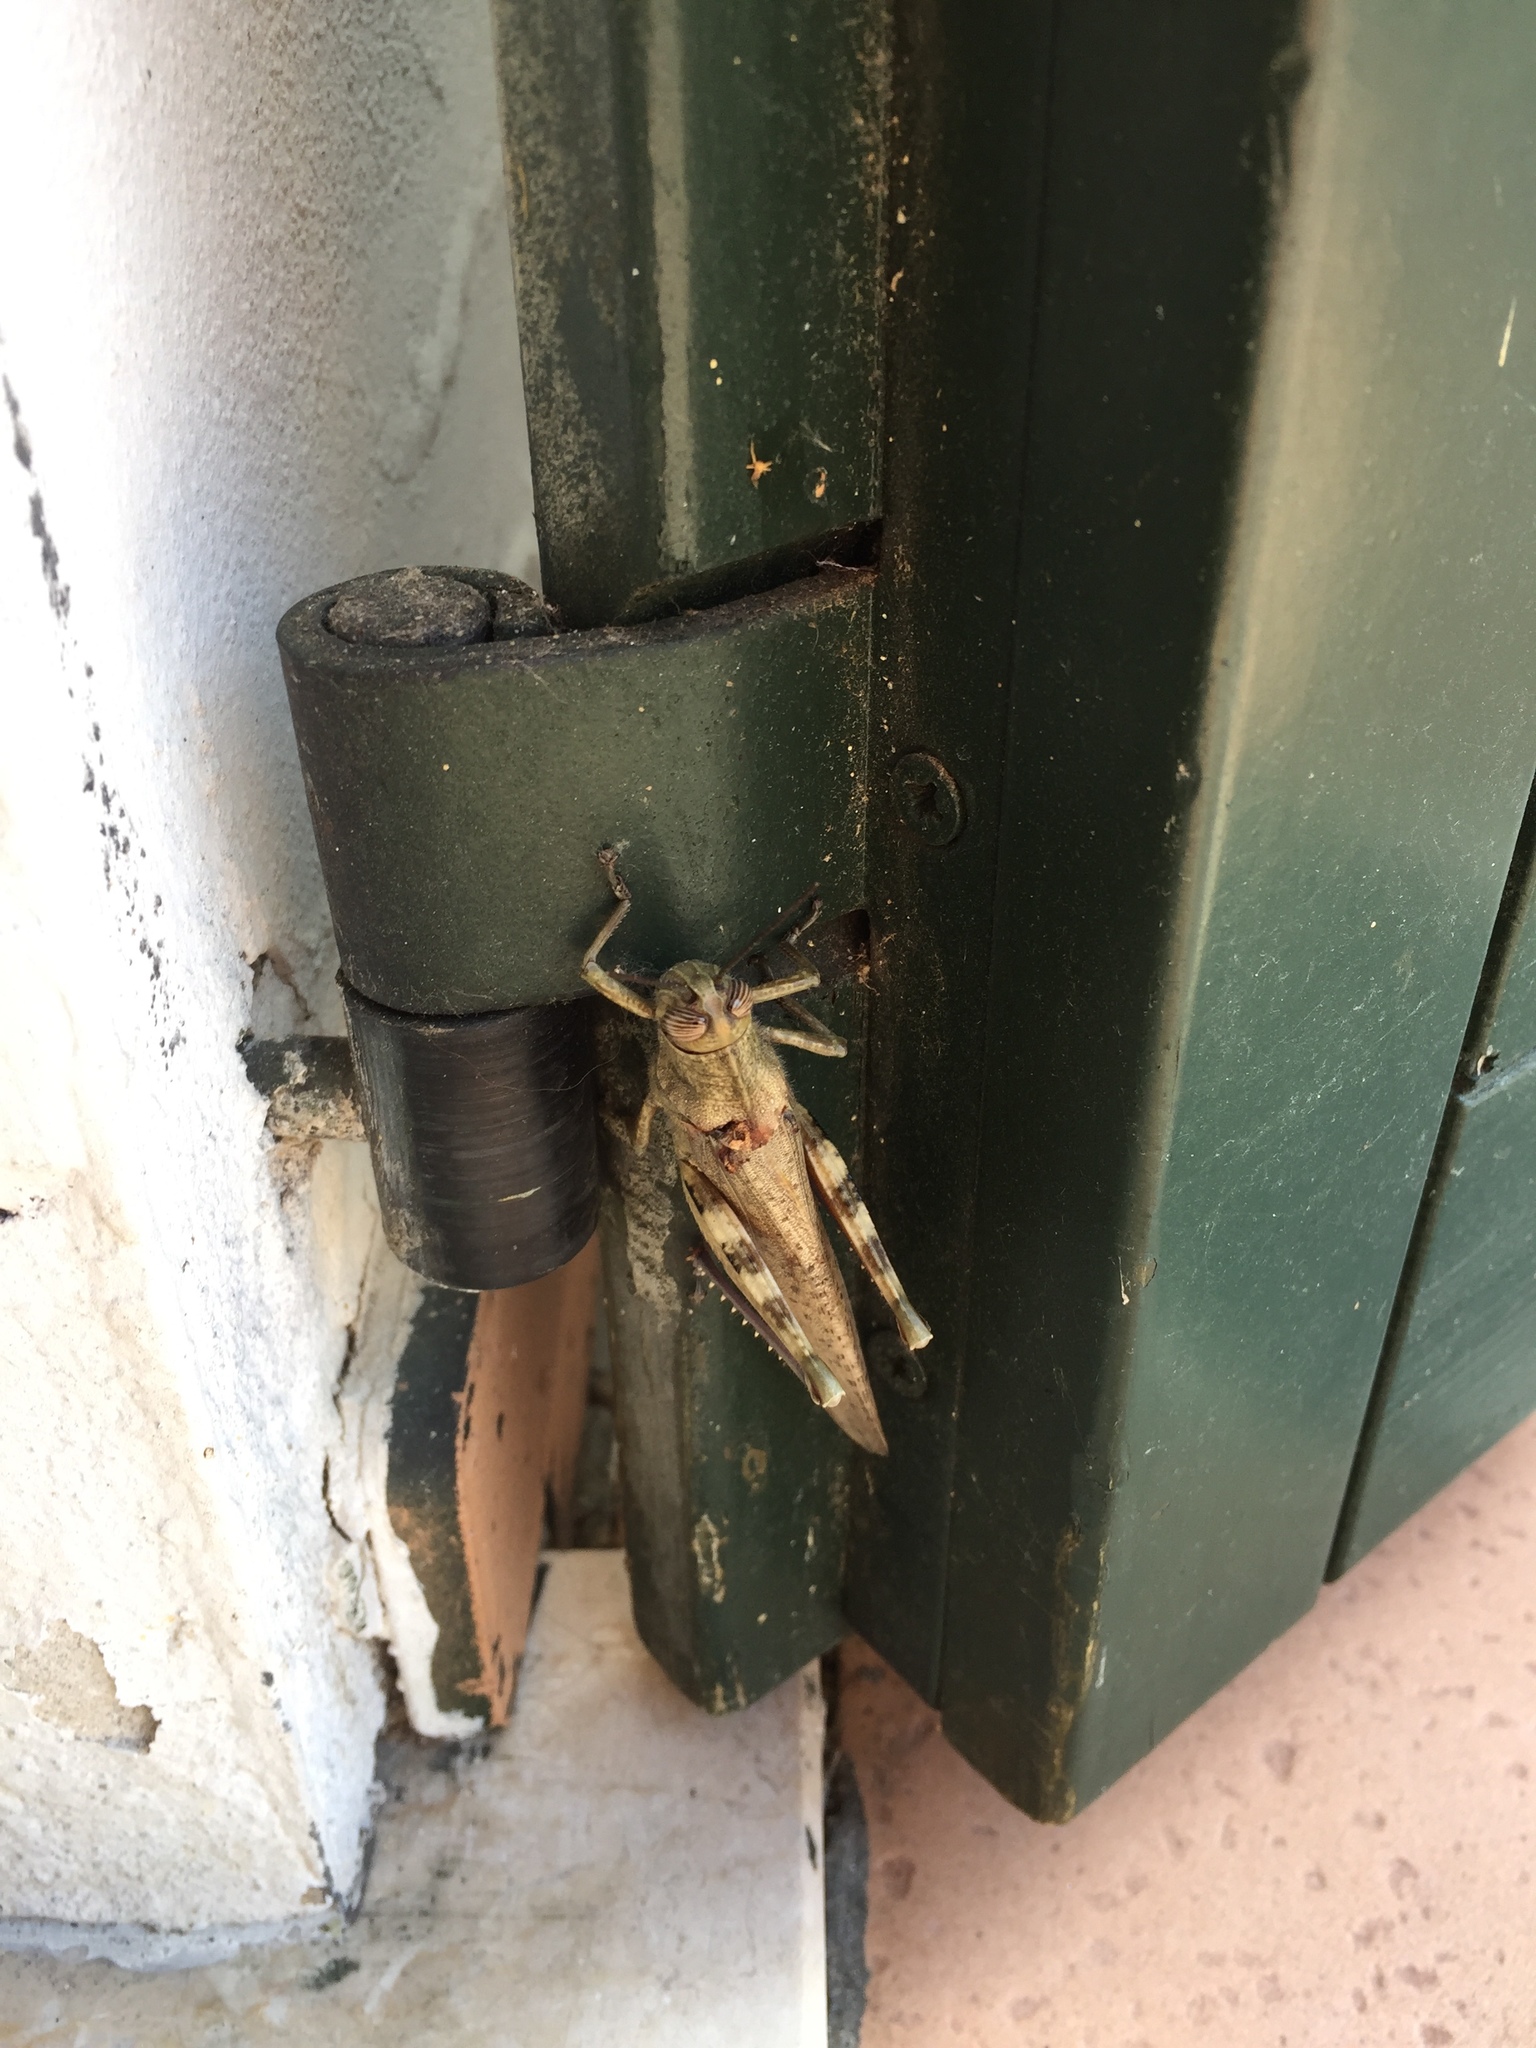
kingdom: Animalia
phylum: Arthropoda
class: Insecta
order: Orthoptera
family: Acrididae
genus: Anacridium
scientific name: Anacridium aegyptium
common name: Egyptian grasshopper
